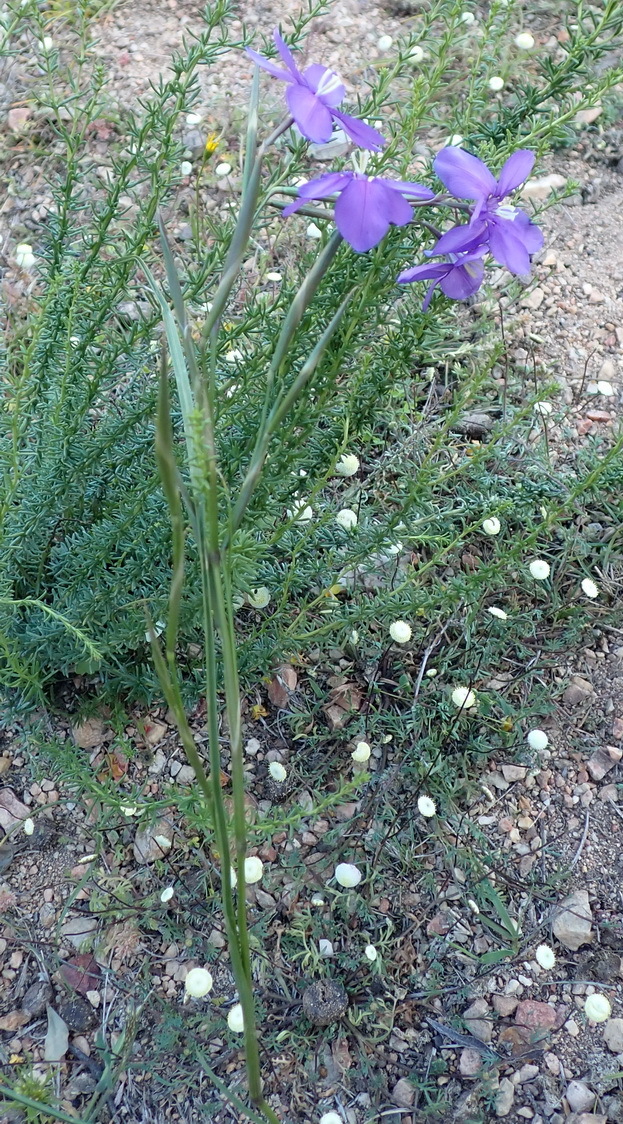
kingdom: Plantae
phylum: Tracheophyta
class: Liliopsida
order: Asparagales
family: Iridaceae
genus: Moraea
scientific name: Moraea polyanthos
